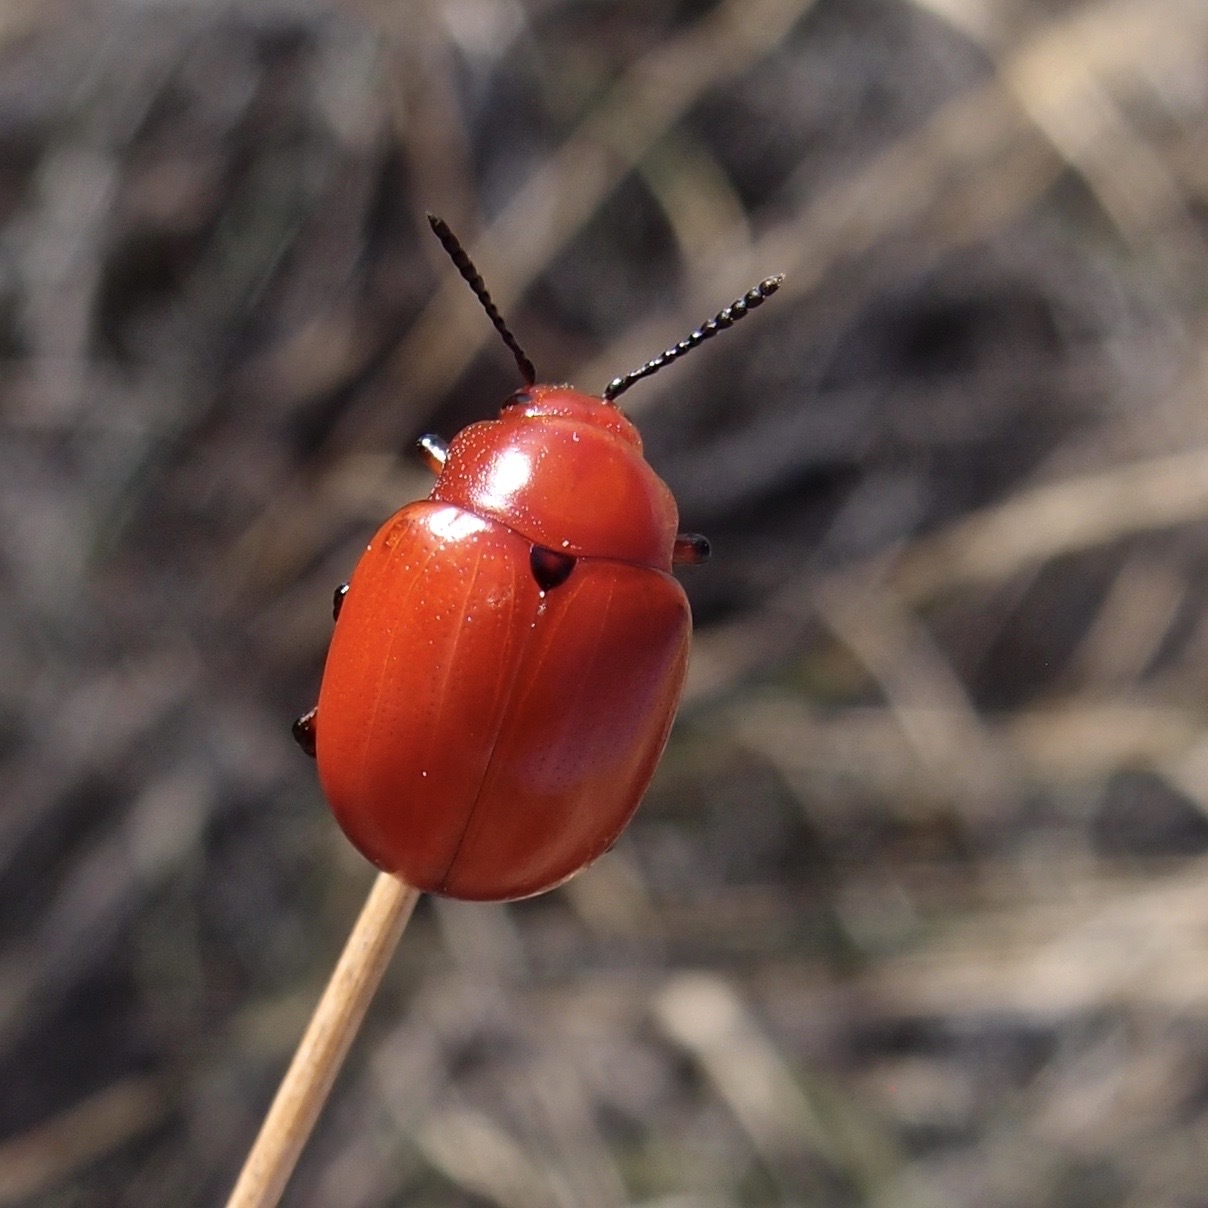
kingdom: Animalia
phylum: Arthropoda
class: Insecta
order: Coleoptera
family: Chrysomelidae
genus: Leptinotarsa
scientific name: Leptinotarsa rubiginosa
